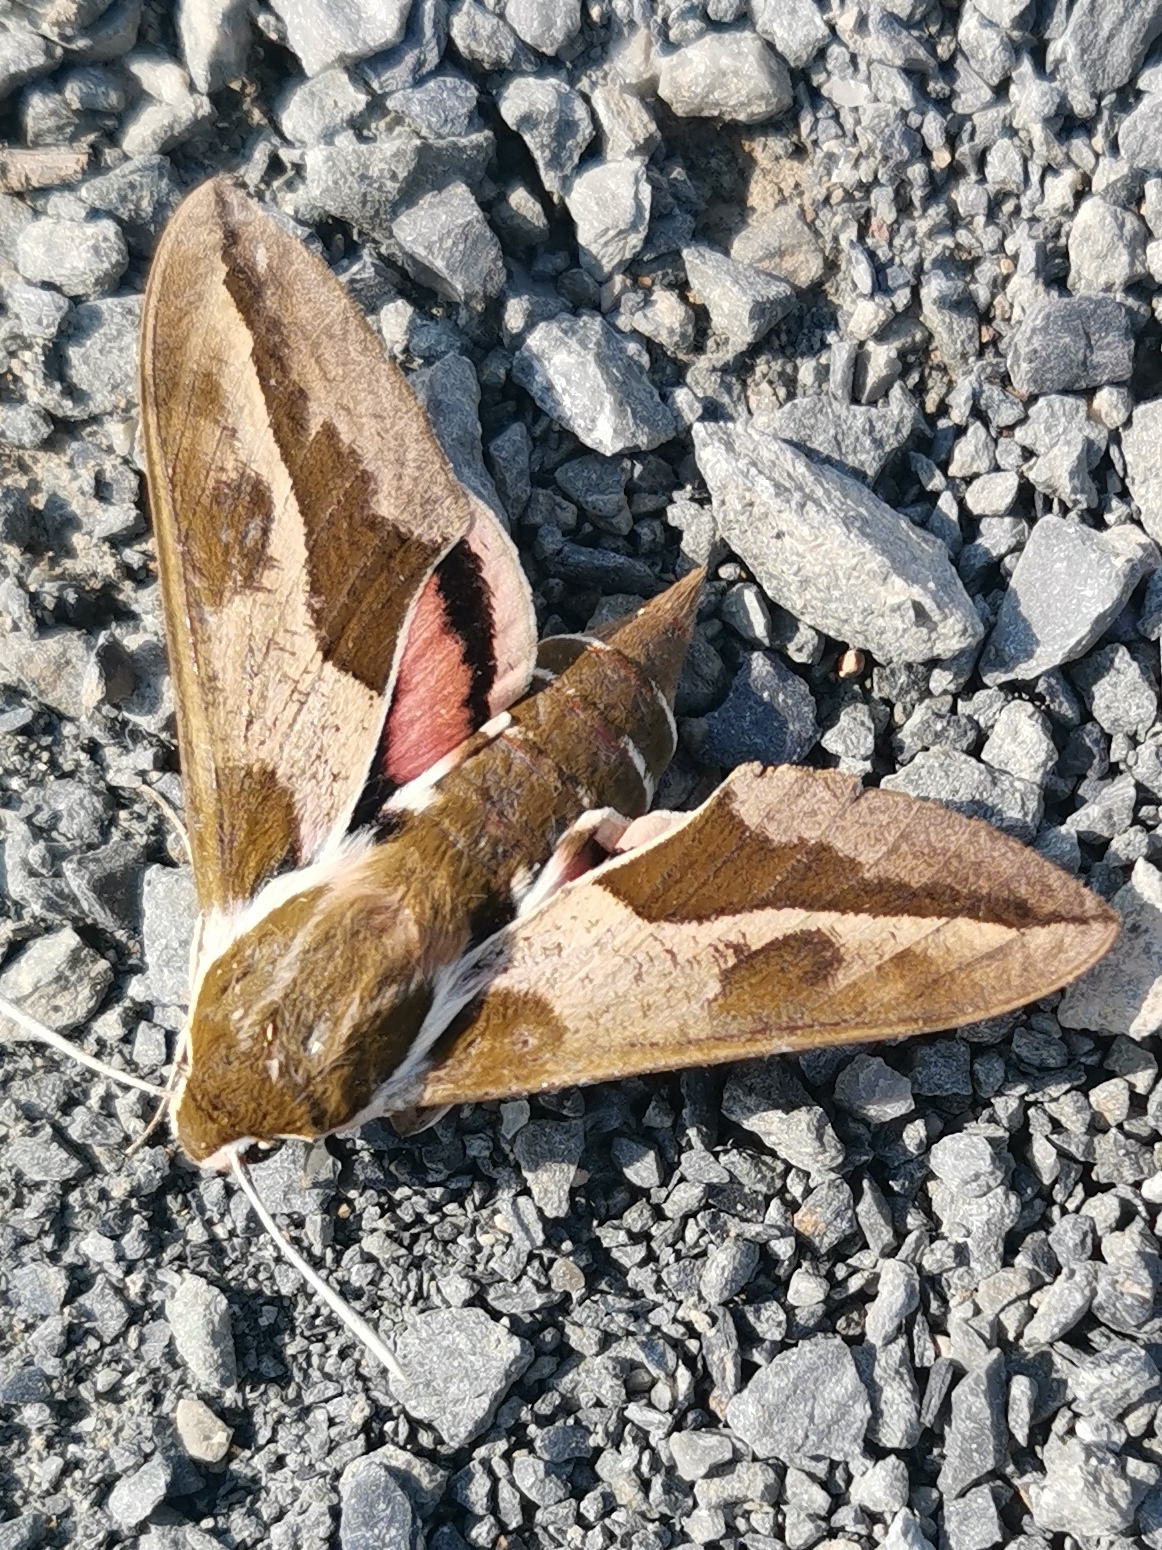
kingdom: Animalia
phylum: Arthropoda
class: Insecta
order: Lepidoptera
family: Sphingidae
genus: Hyles
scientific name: Hyles euphorbiae
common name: Spurge hawk-moth
